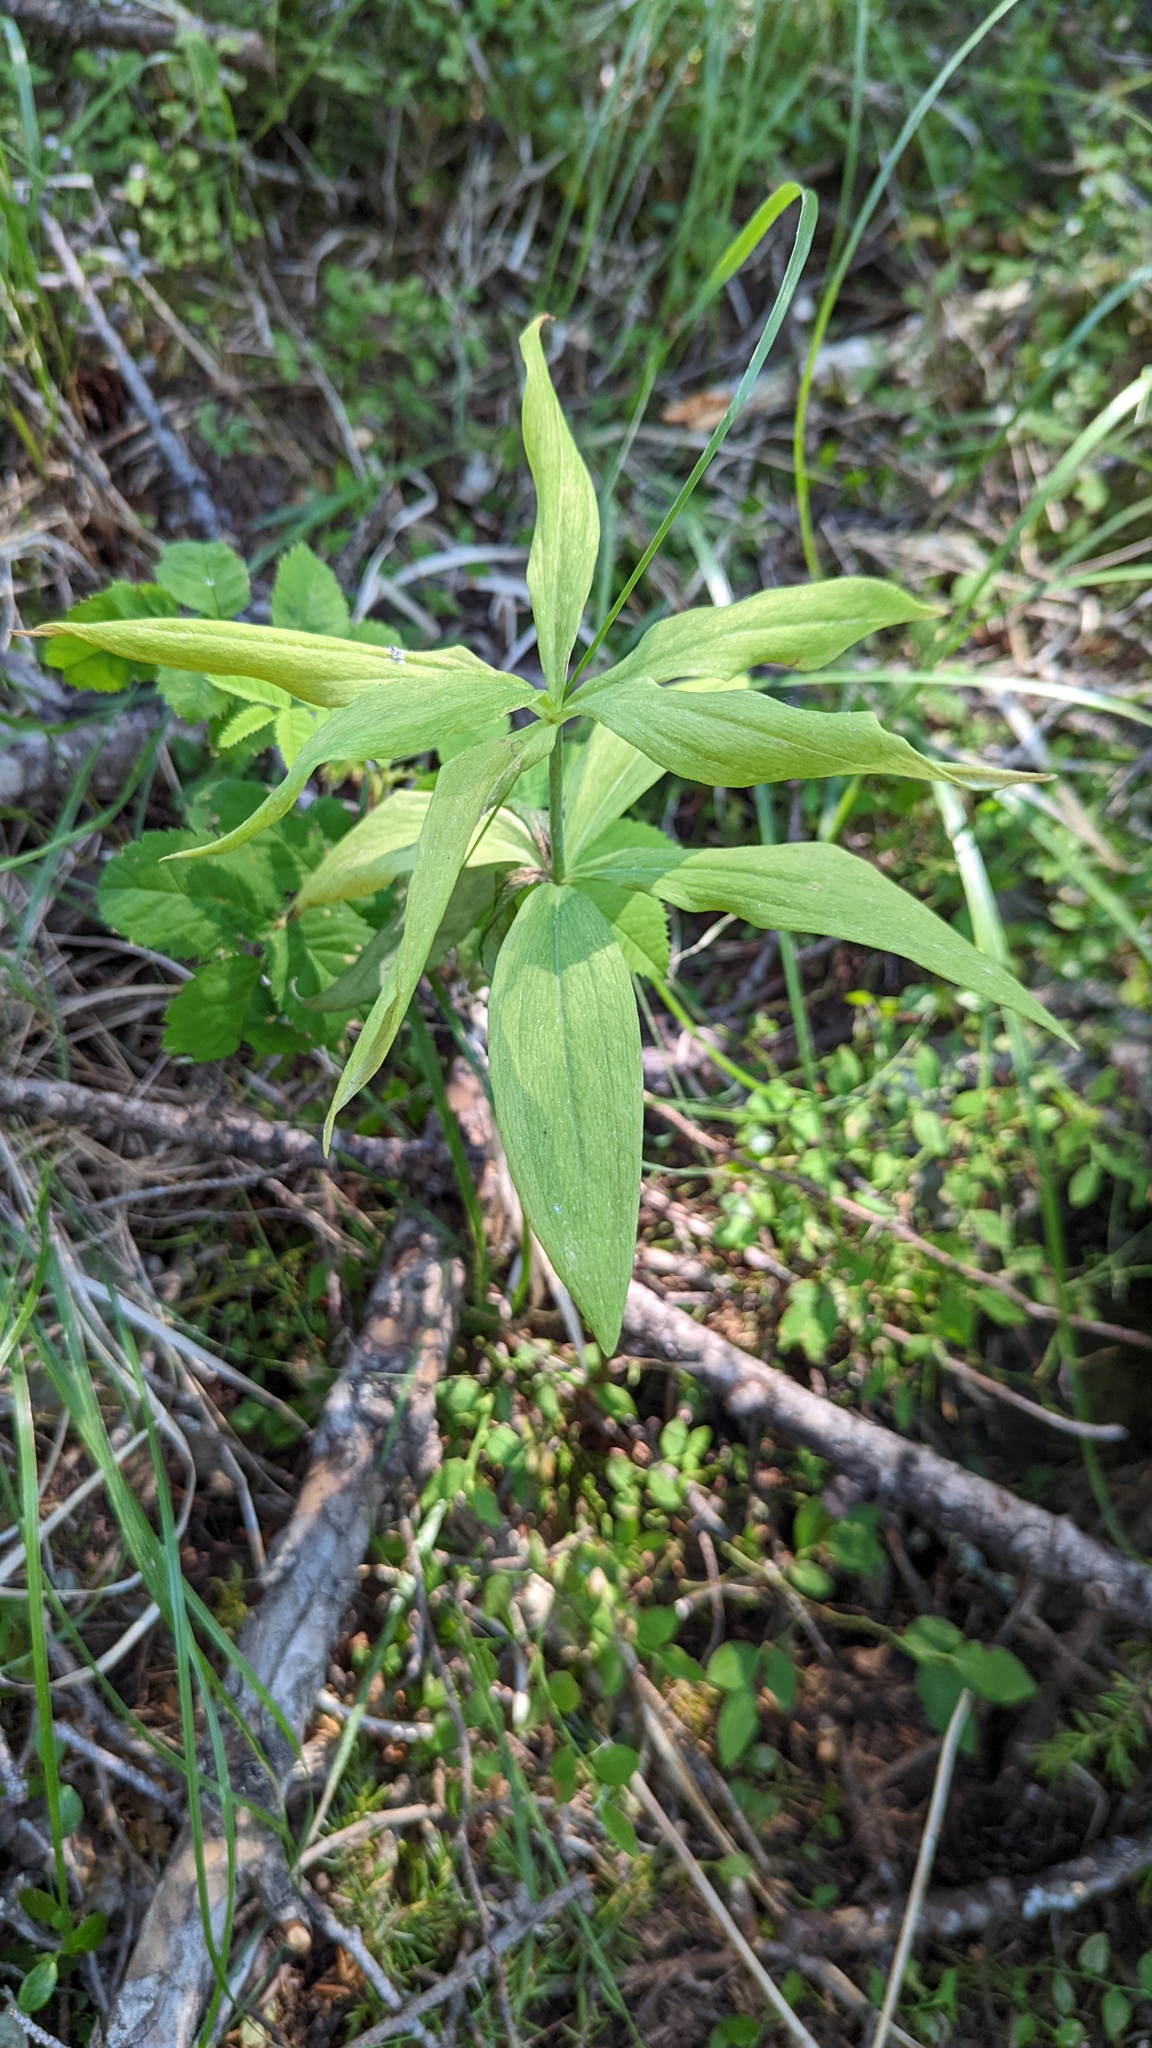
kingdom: Plantae
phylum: Tracheophyta
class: Liliopsida
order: Liliales
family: Liliaceae
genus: Lilium
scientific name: Lilium columbianum
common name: Columbia lily
